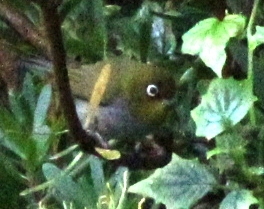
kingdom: Animalia
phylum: Chordata
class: Aves
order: Passeriformes
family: Zosteropidae
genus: Zosterops
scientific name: Zosterops virens
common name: Cape white-eye
